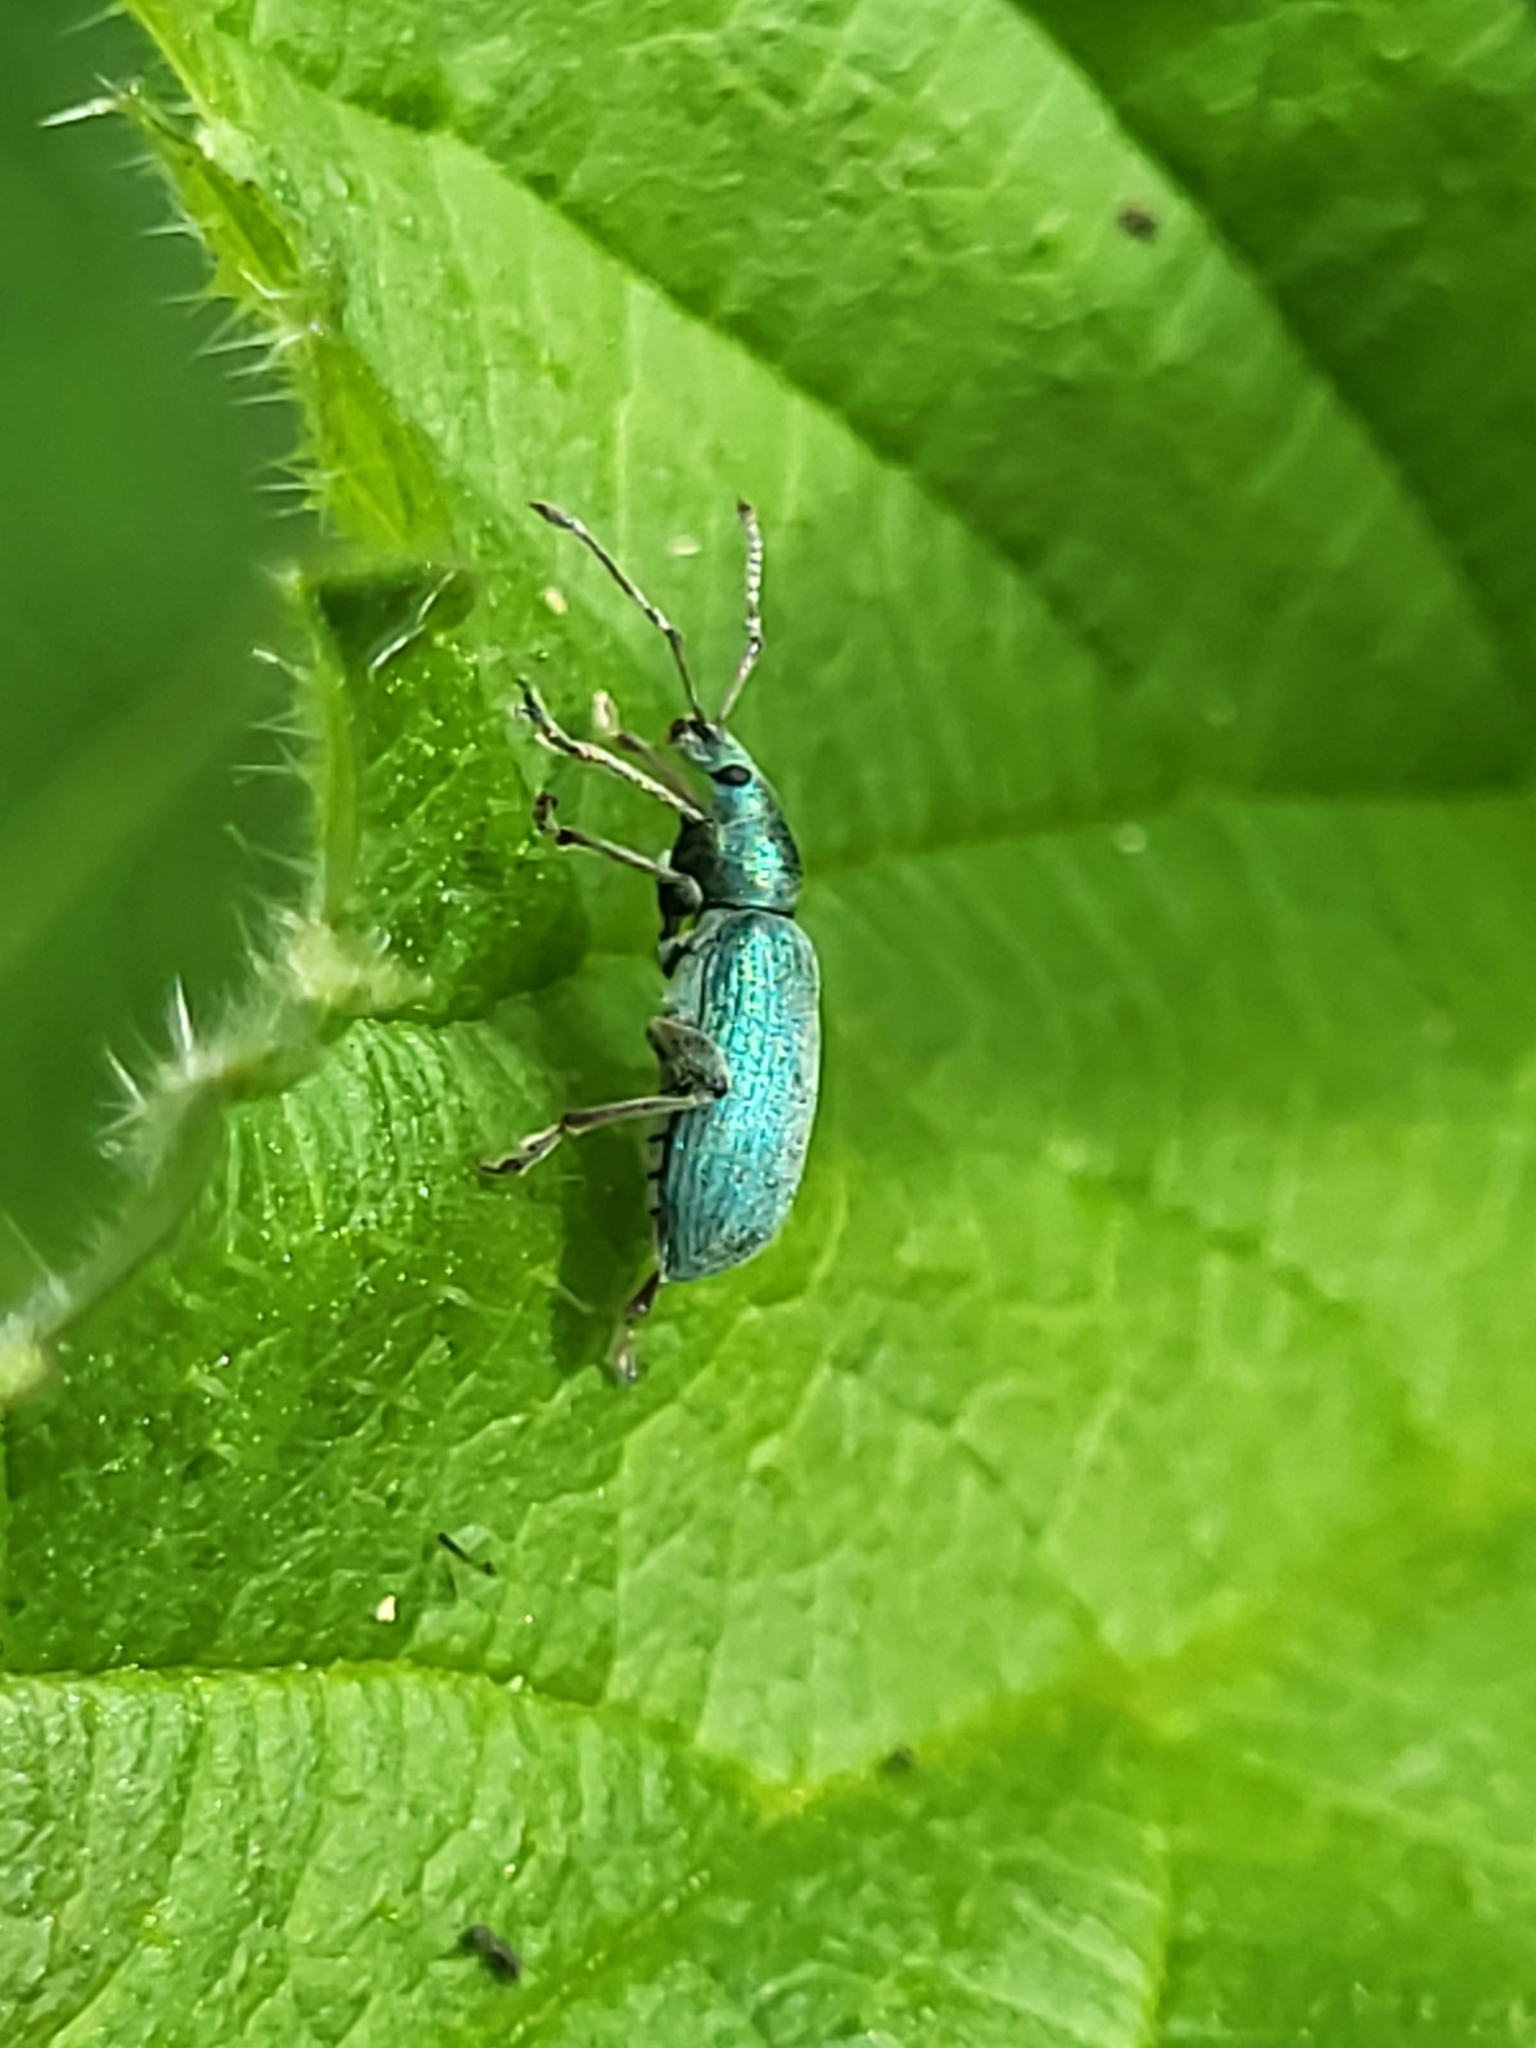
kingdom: Animalia
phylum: Arthropoda
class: Insecta
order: Coleoptera
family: Curculionidae
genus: Phyllobius
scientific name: Phyllobius pomaceus
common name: Green nettle weevil
